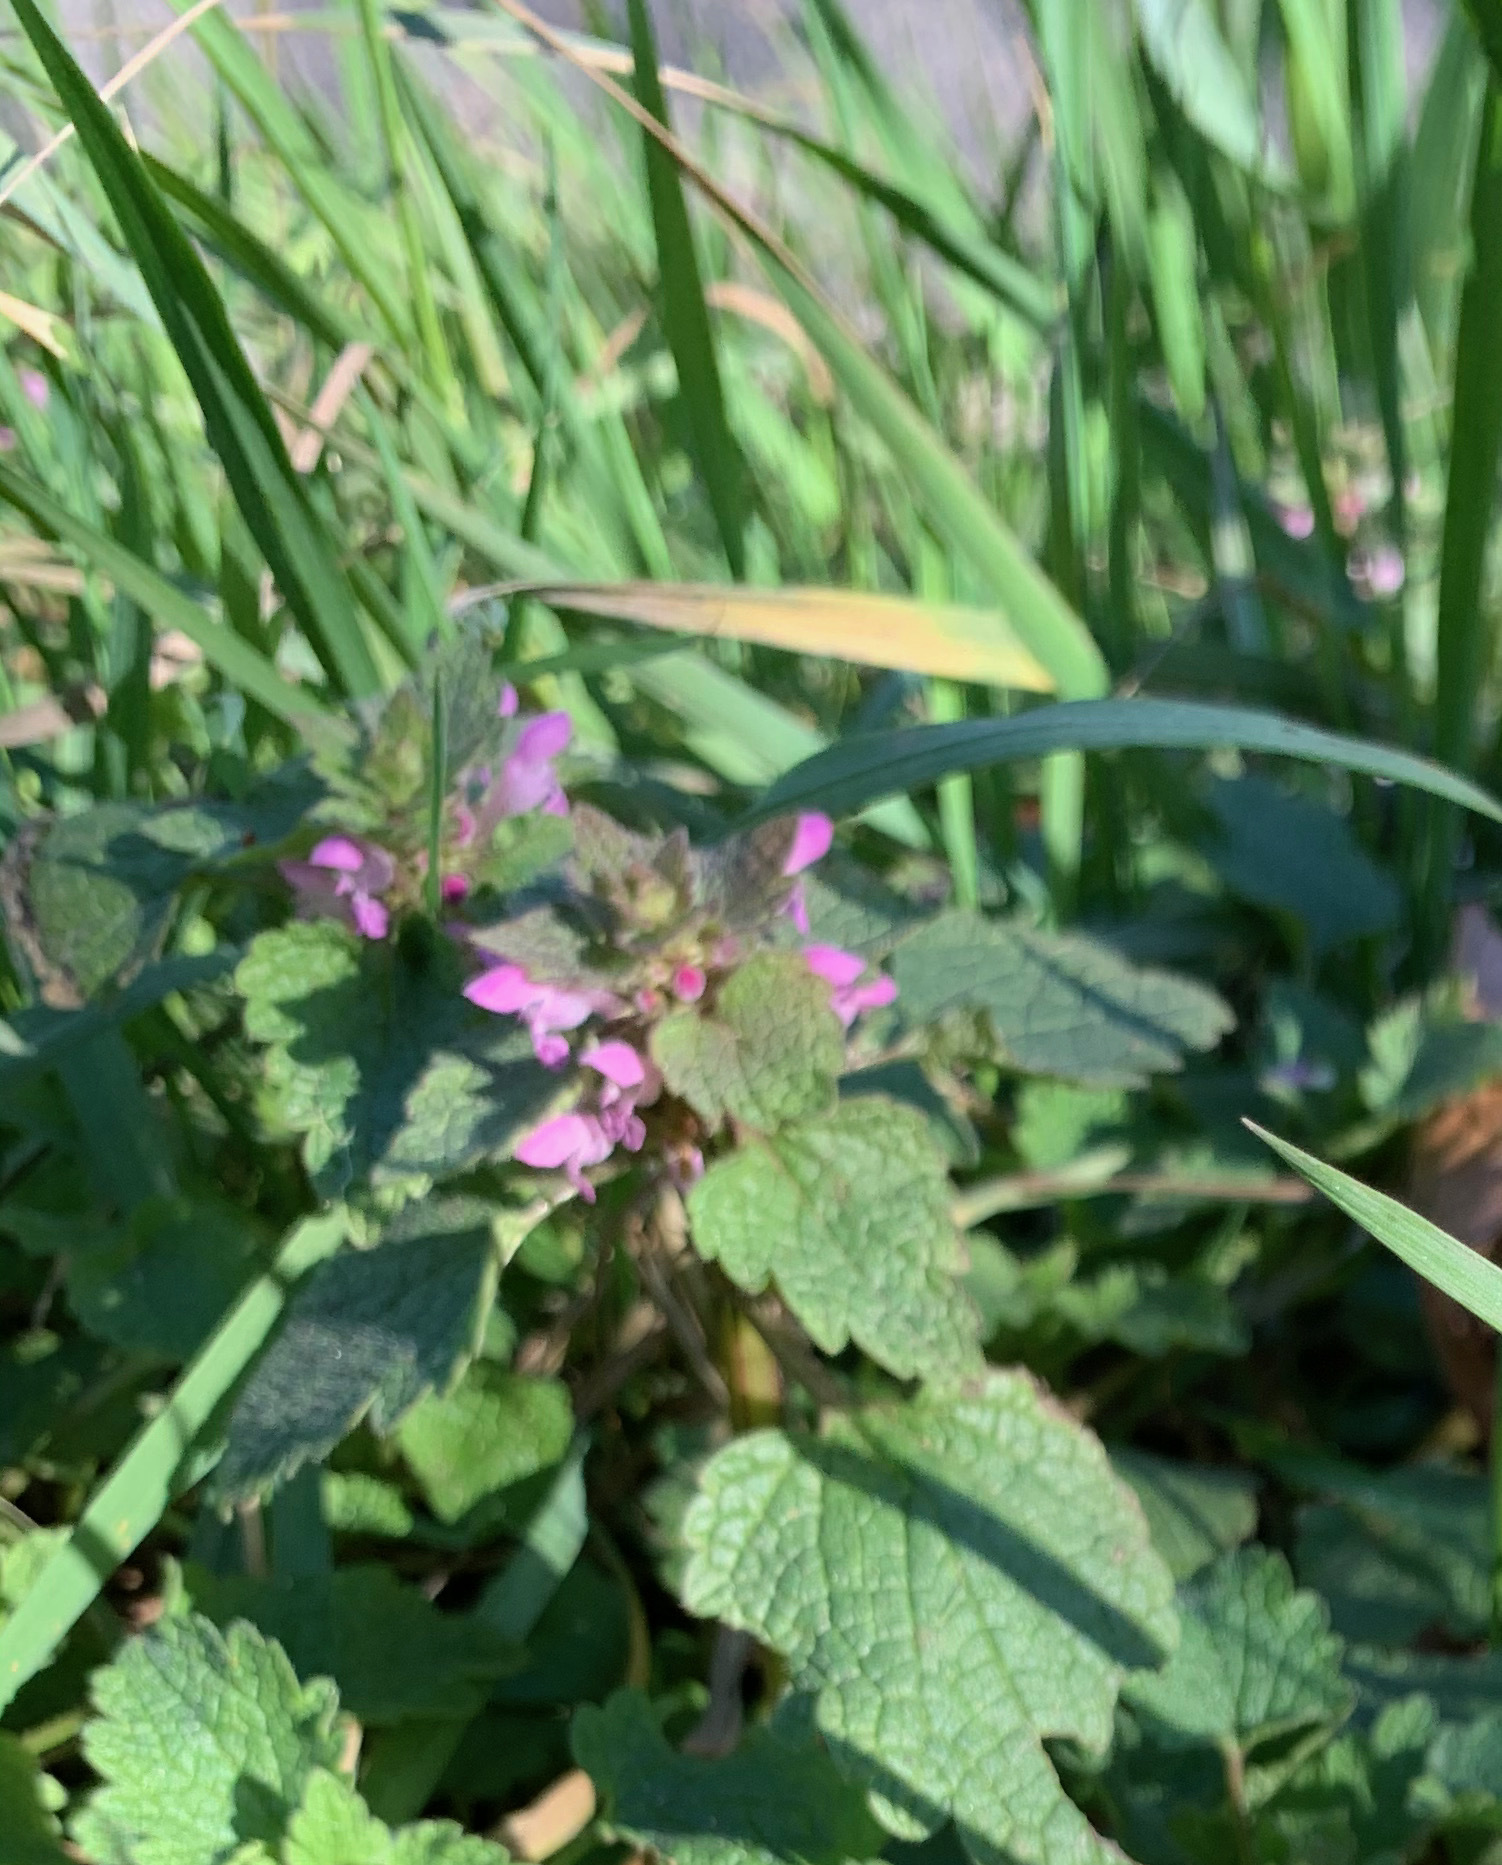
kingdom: Plantae
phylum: Tracheophyta
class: Magnoliopsida
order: Lamiales
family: Lamiaceae
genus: Lamium
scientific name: Lamium purpureum
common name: Red dead-nettle
